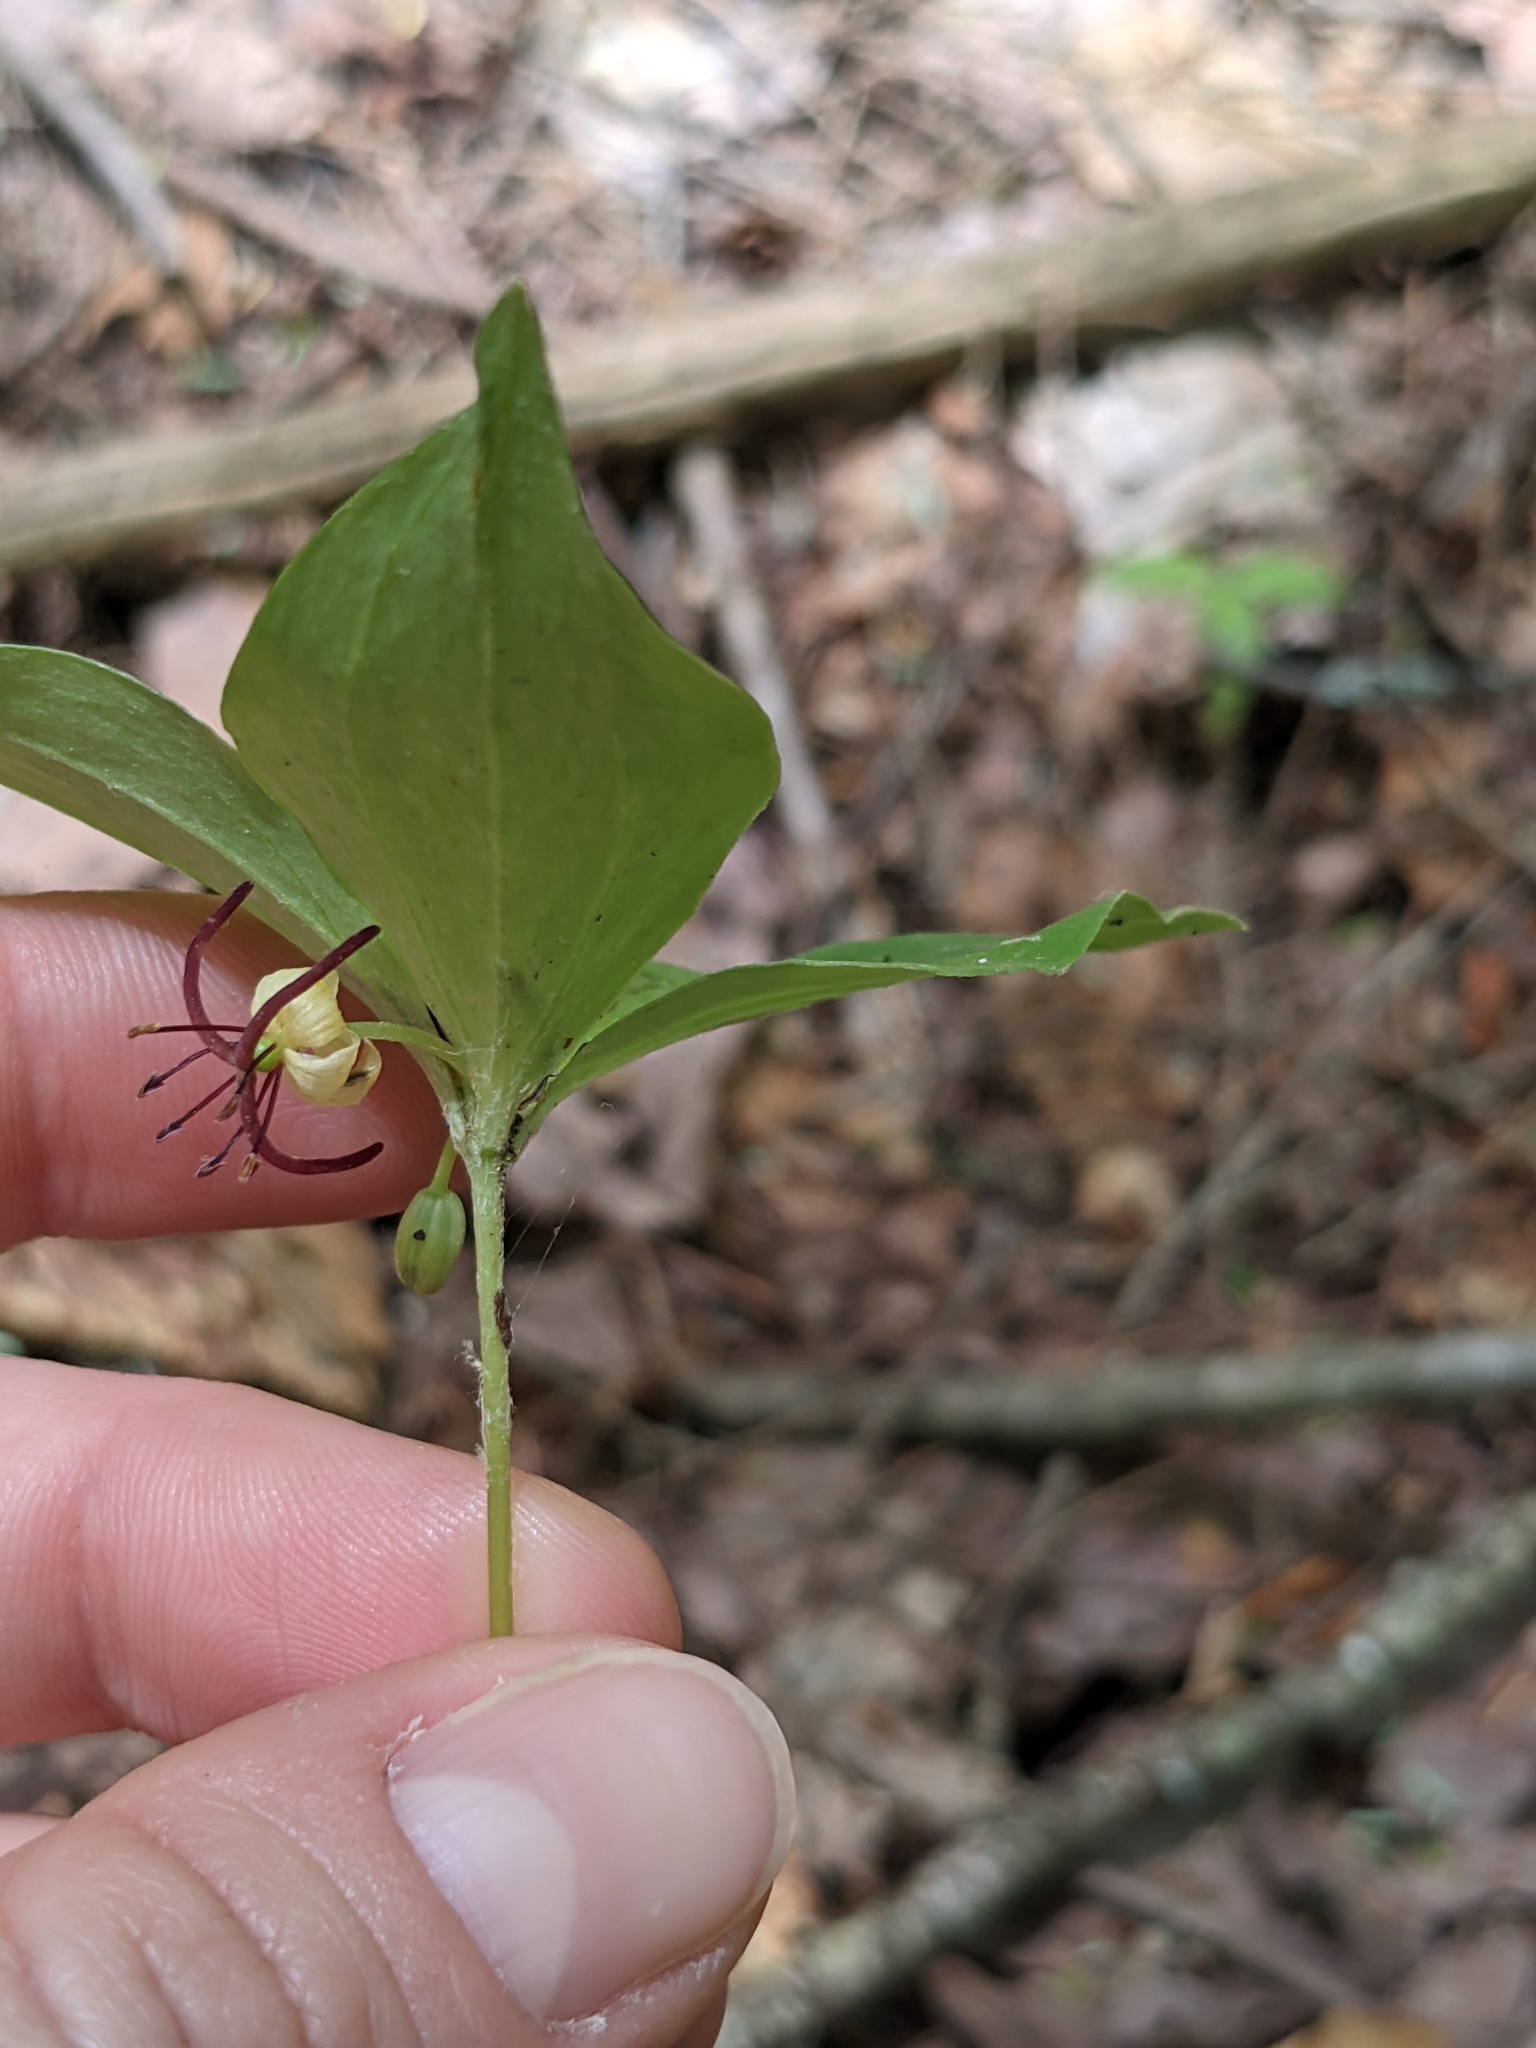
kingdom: Plantae
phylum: Tracheophyta
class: Liliopsida
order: Liliales
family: Liliaceae
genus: Medeola
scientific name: Medeola virginiana
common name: Indian cucumber-root
